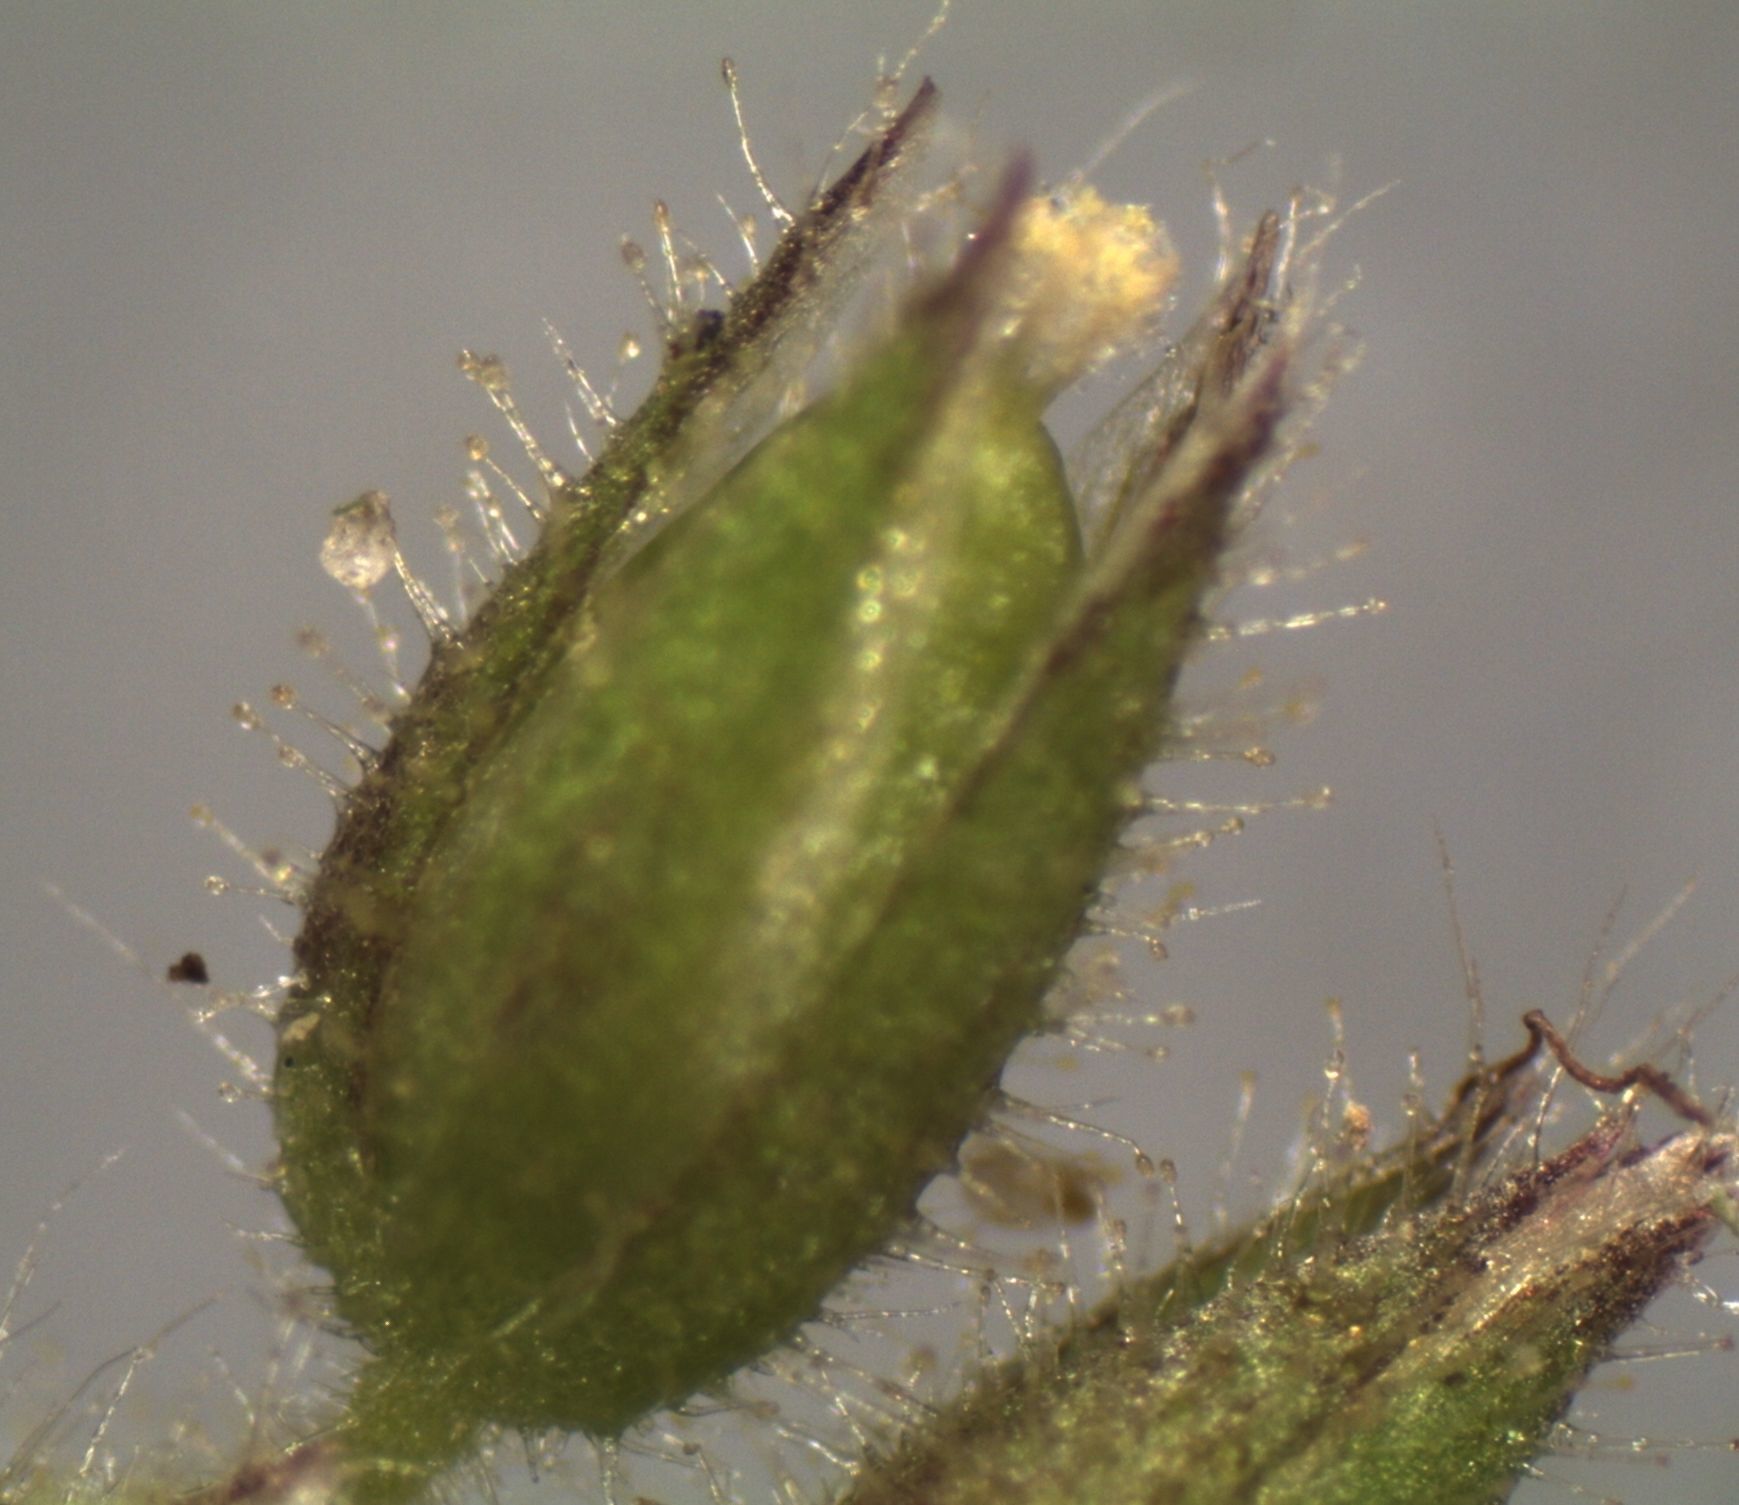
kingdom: Plantae
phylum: Tracheophyta
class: Magnoliopsida
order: Caryophyllales
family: Caryophyllaceae
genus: Cerastium
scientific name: Cerastium glomeratum
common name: Sticky chickweed
